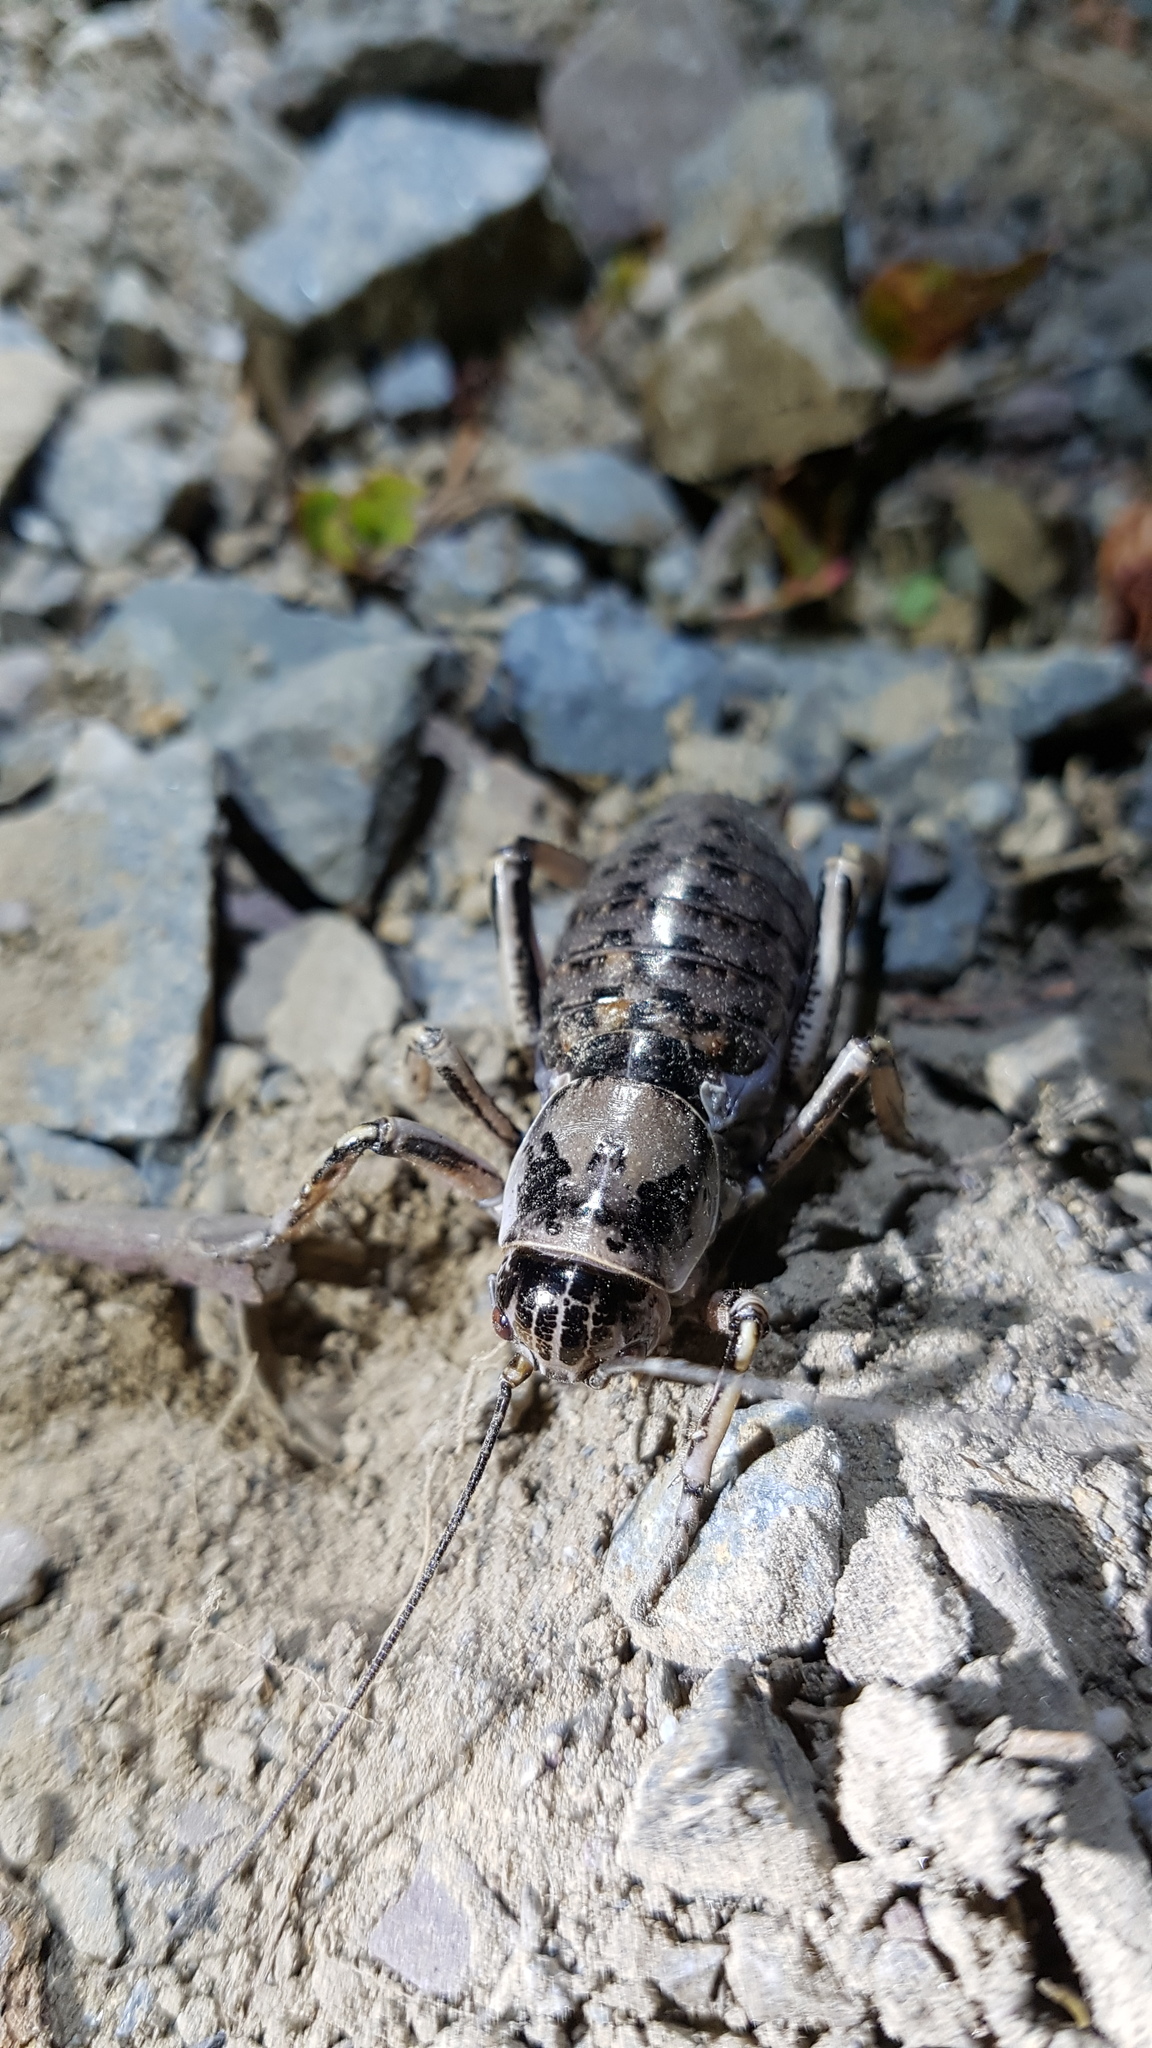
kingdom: Animalia
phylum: Arthropoda
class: Insecta
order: Orthoptera
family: Prophalangopsidae
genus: Cyphoderris
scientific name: Cyphoderris monstrosa
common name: Great grig
